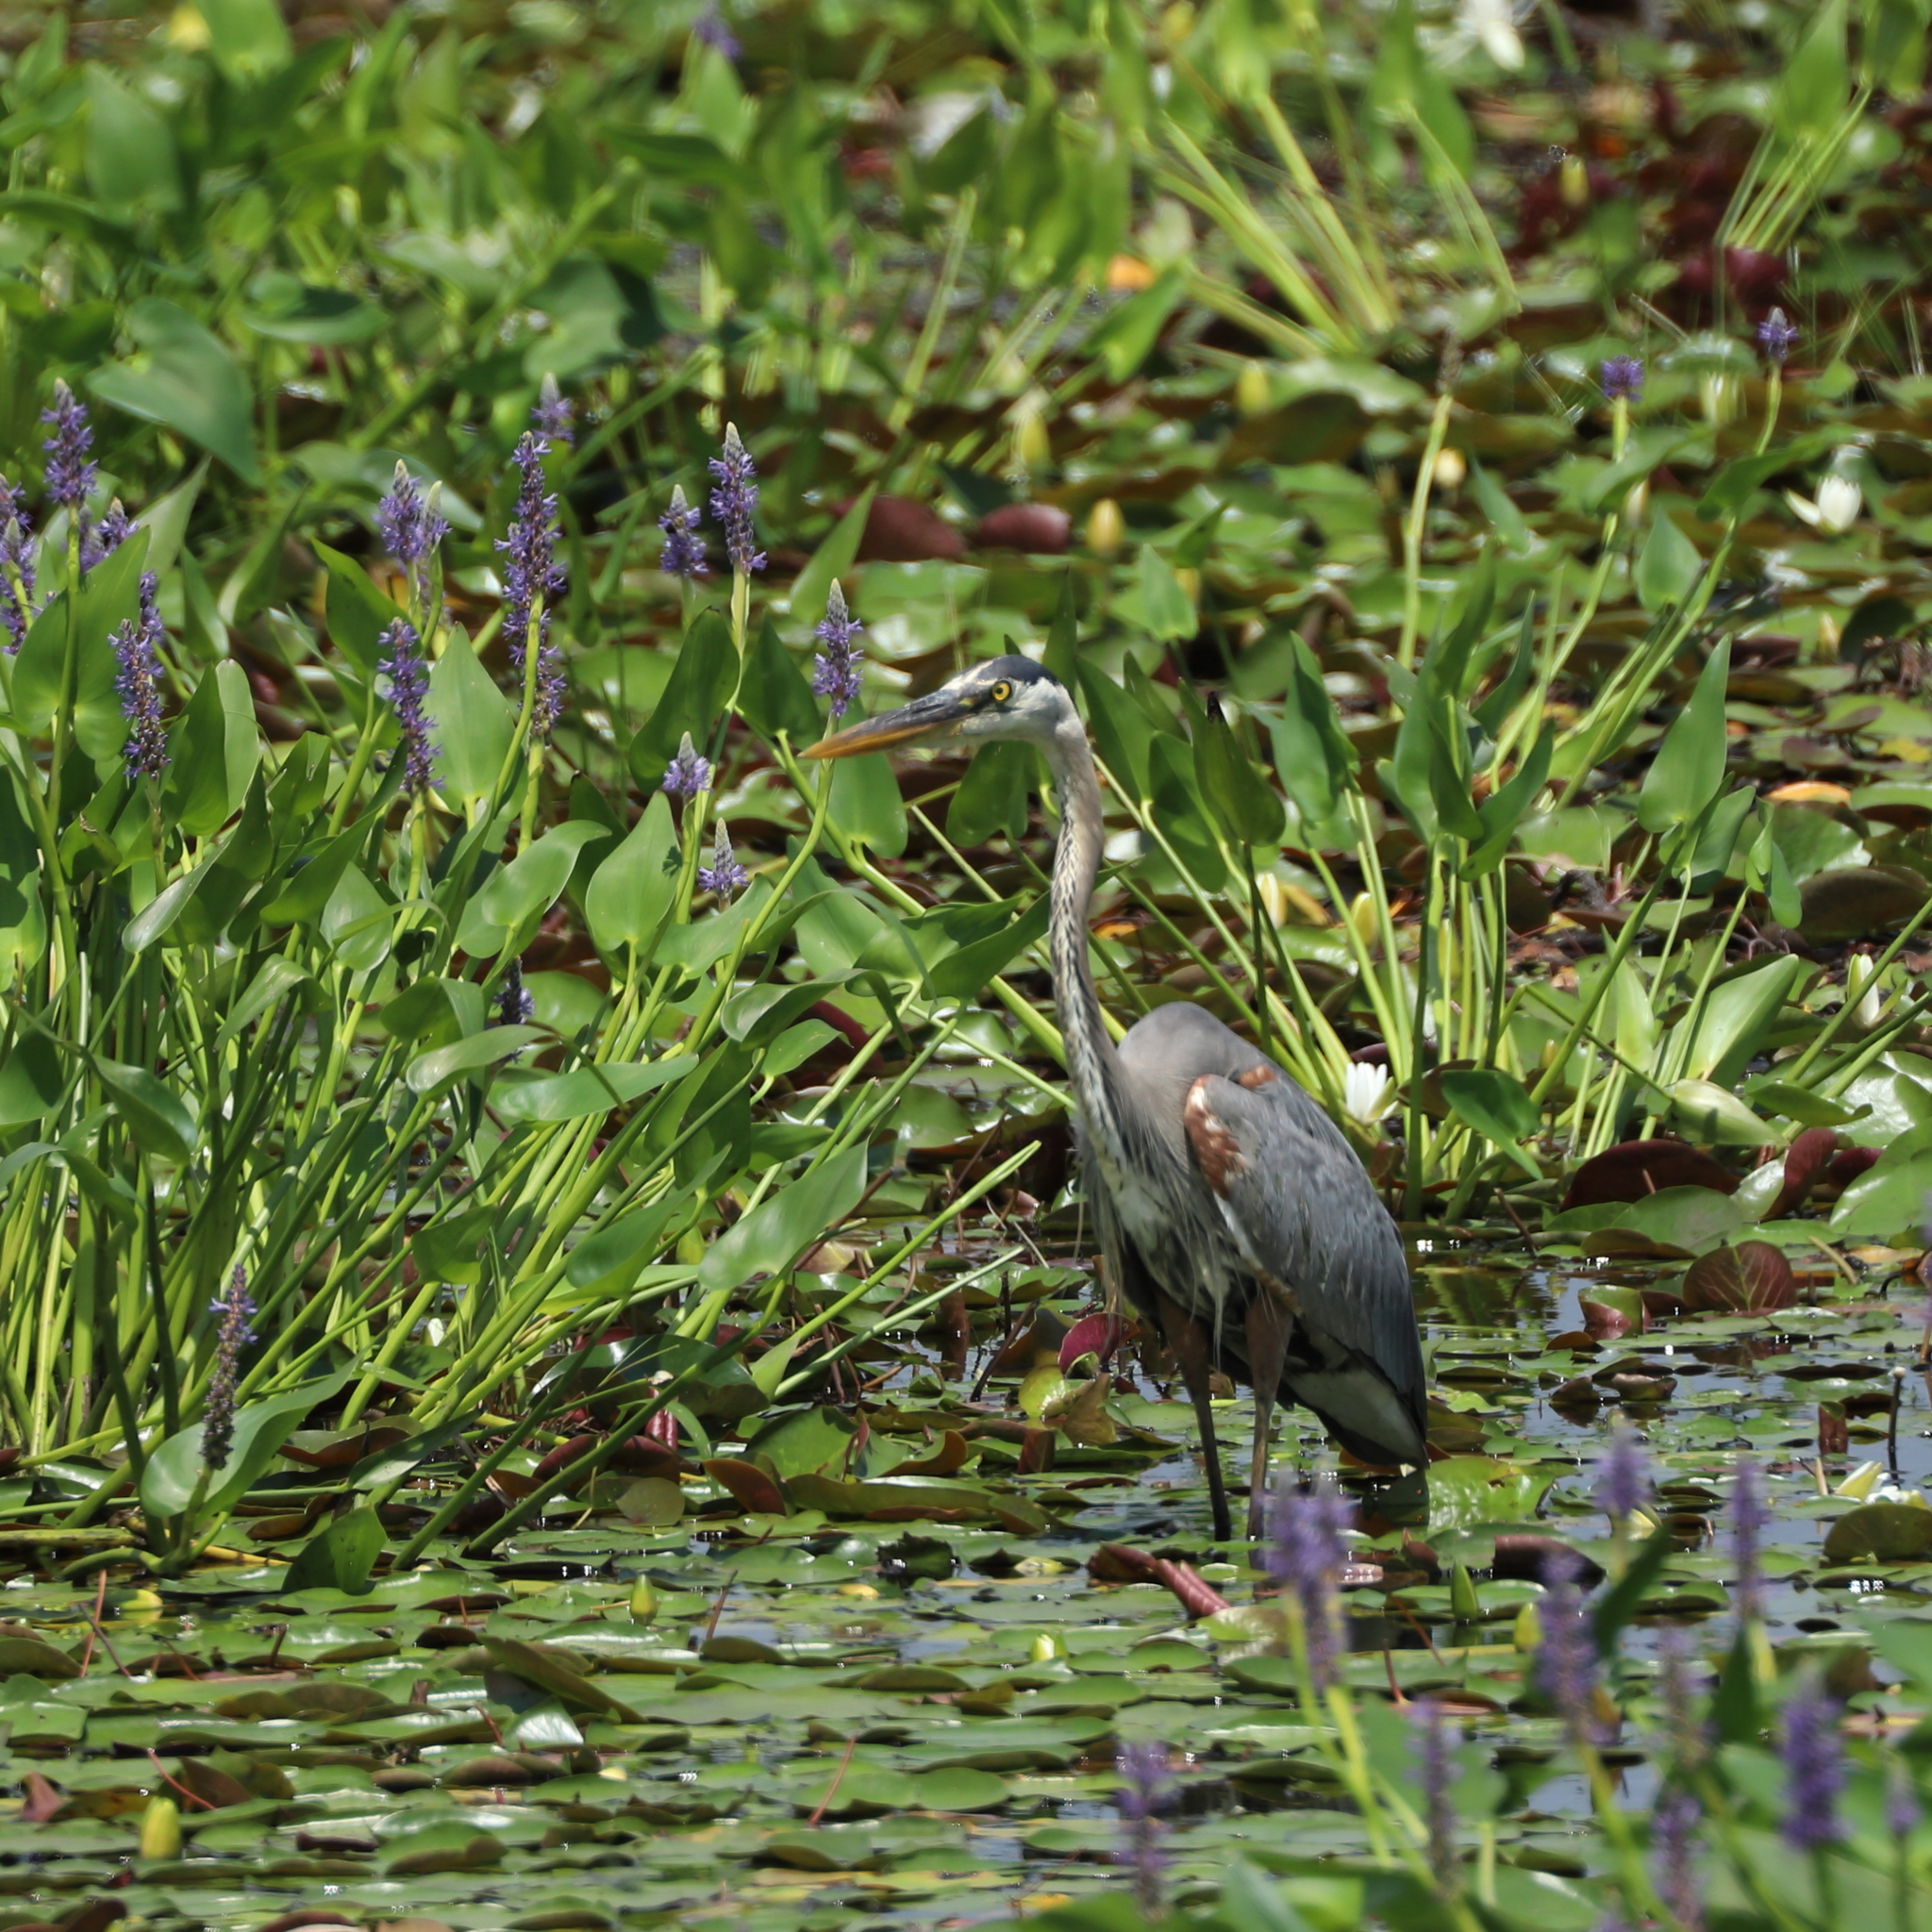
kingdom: Animalia
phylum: Chordata
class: Aves
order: Pelecaniformes
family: Ardeidae
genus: Ardea
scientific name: Ardea herodias
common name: Great blue heron
